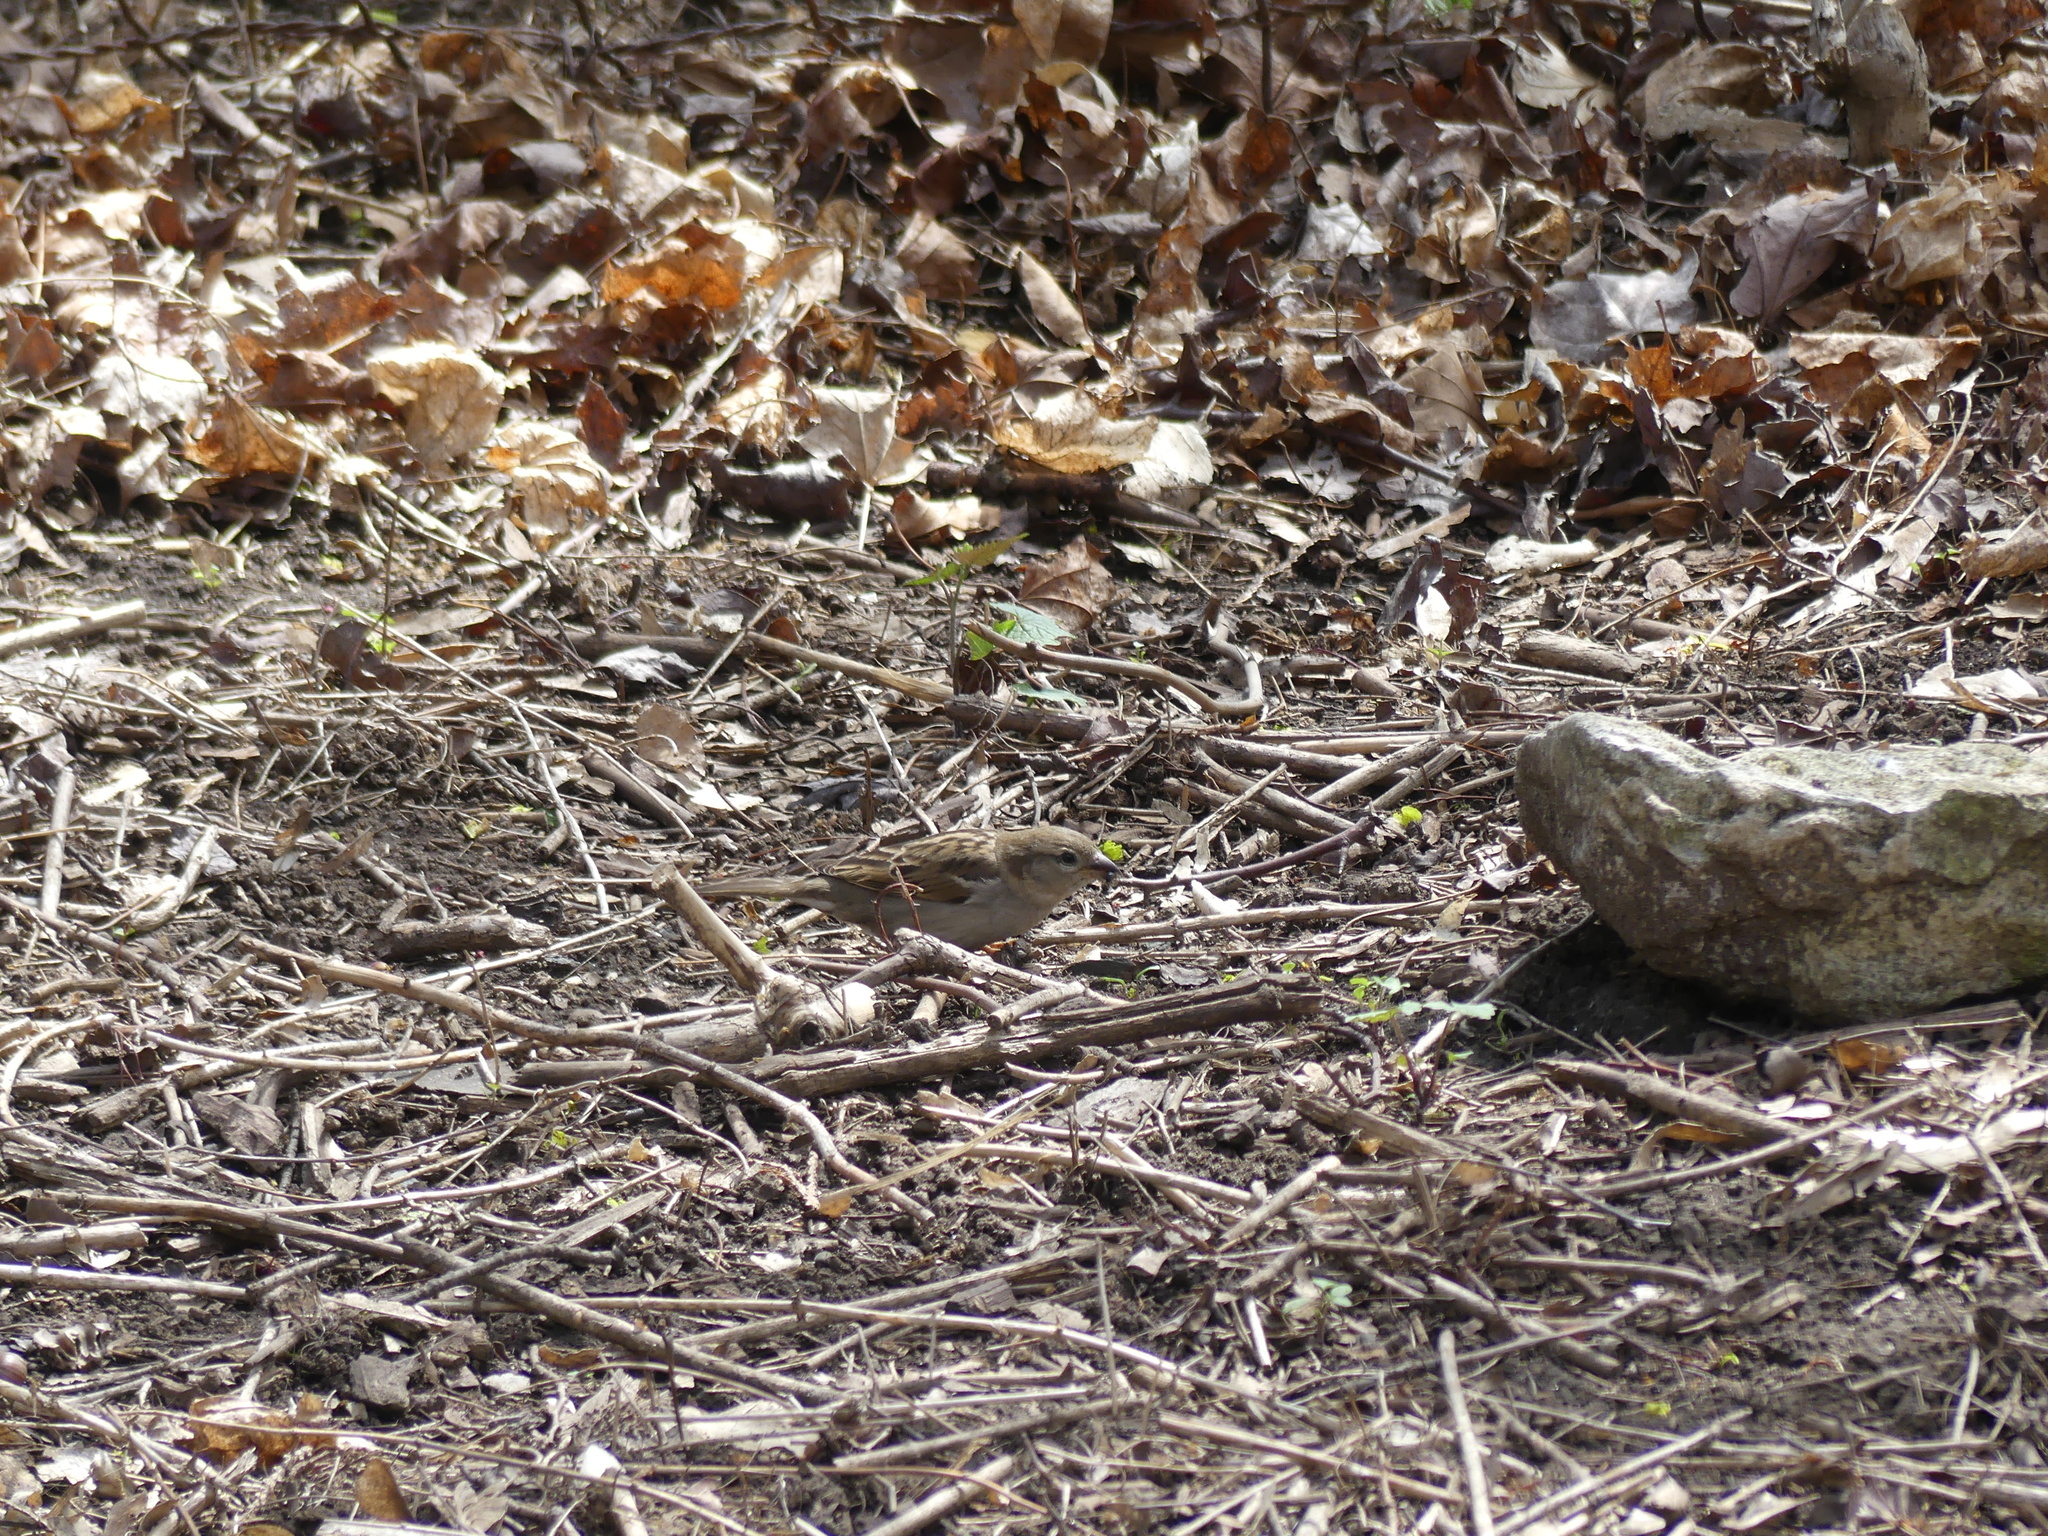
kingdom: Animalia
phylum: Chordata
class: Aves
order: Passeriformes
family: Passeridae
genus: Passer
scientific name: Passer domesticus
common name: House sparrow
